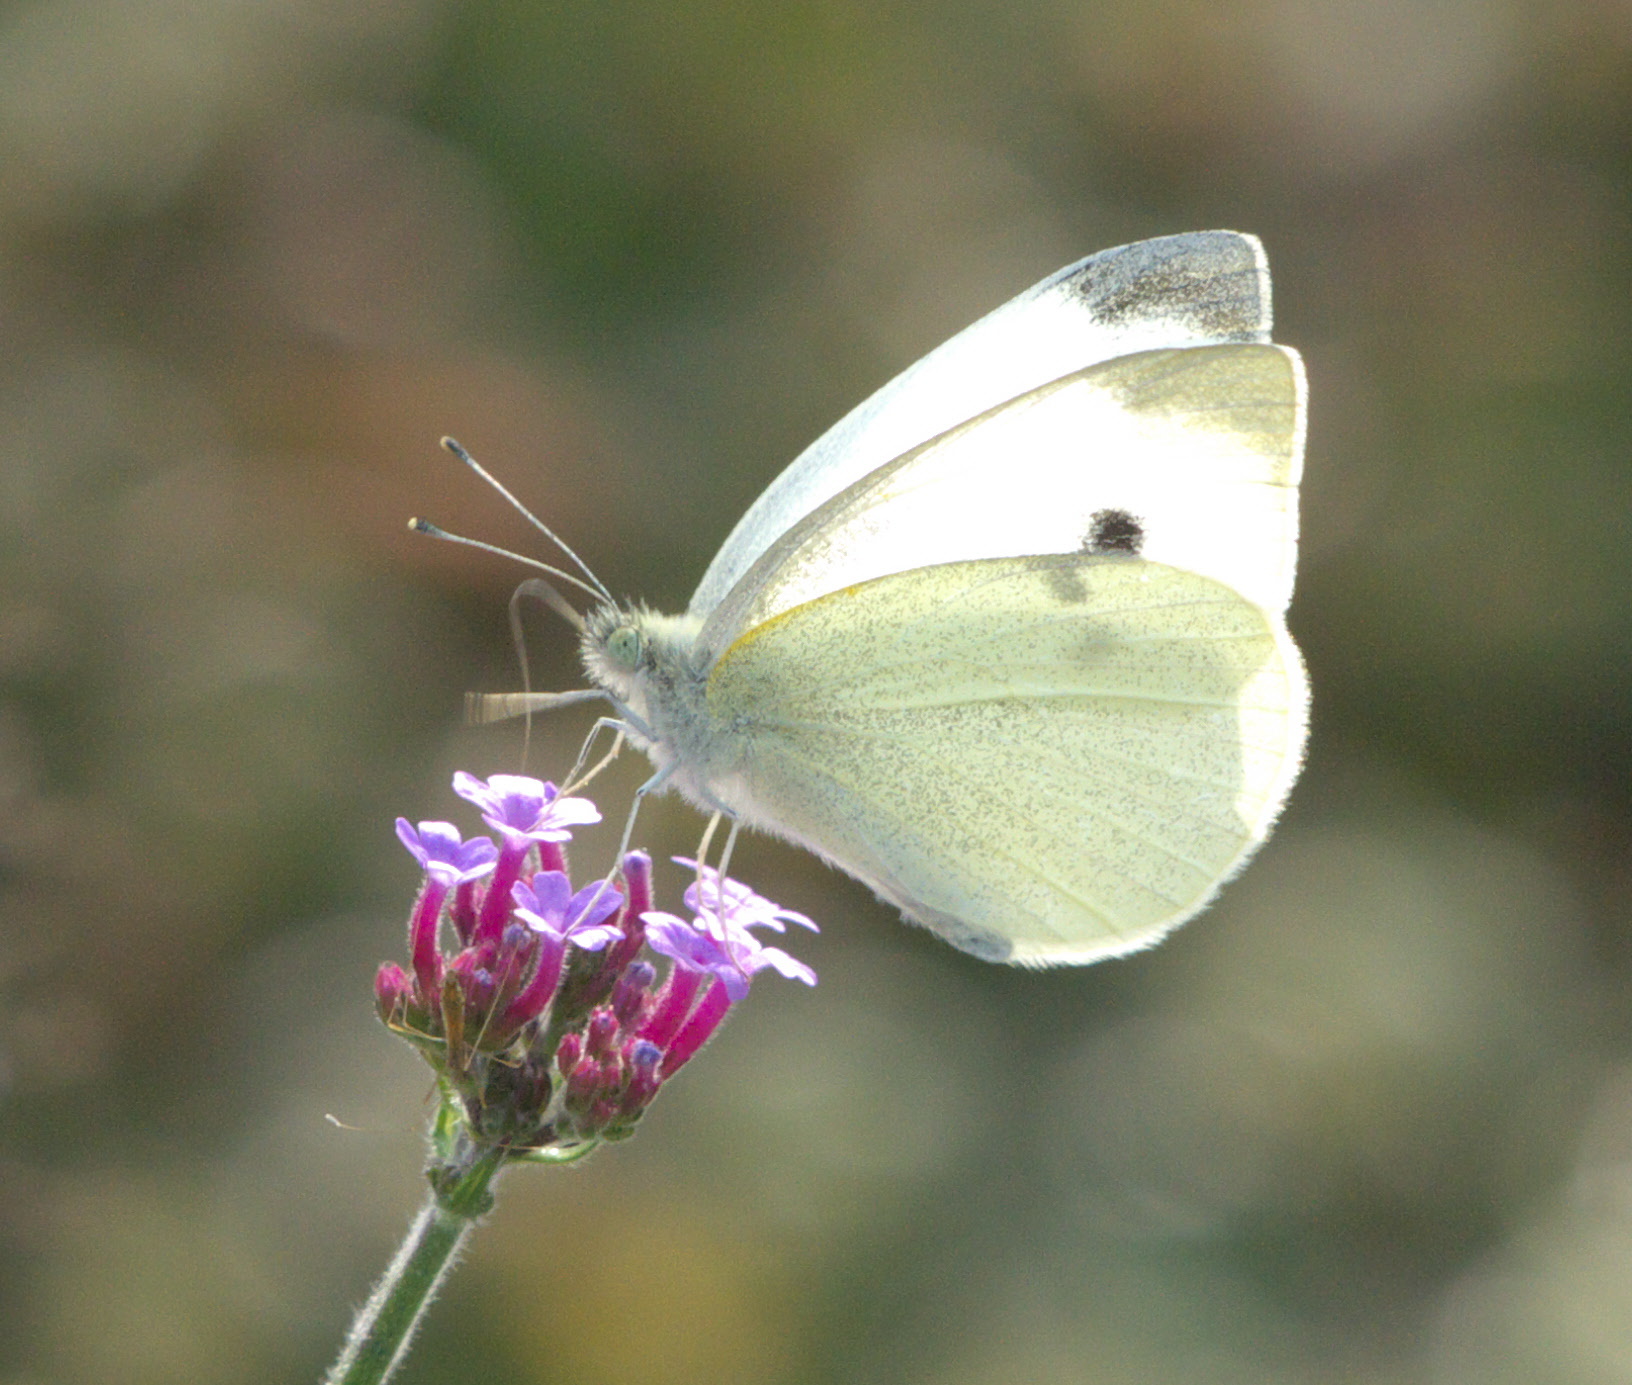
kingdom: Animalia
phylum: Arthropoda
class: Insecta
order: Lepidoptera
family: Pieridae
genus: Pieris
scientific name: Pieris rapae
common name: Small white
